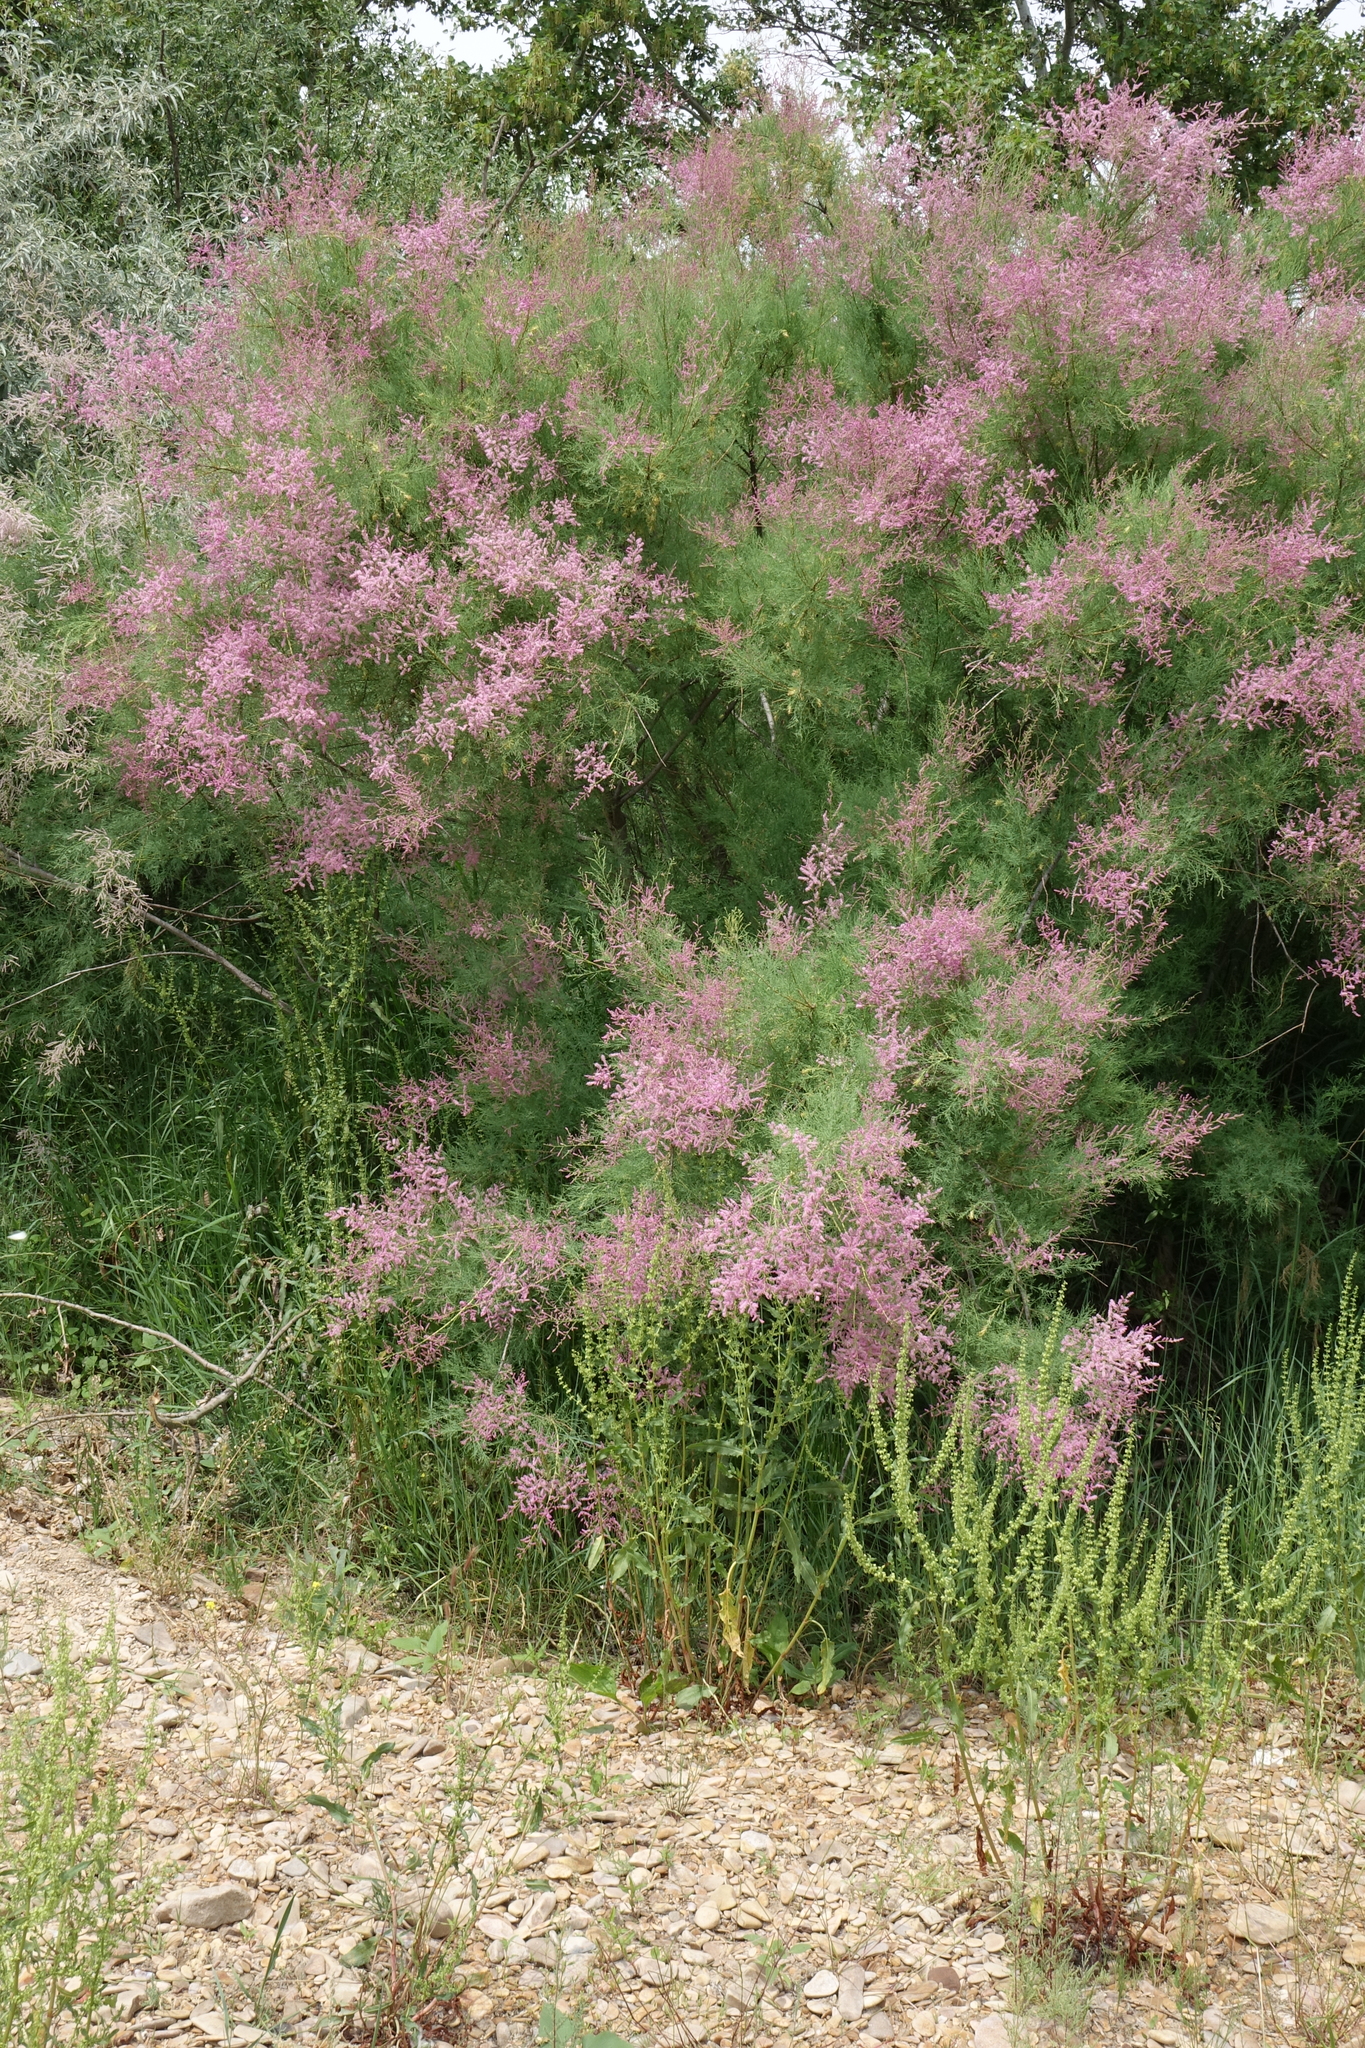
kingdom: Plantae
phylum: Tracheophyta
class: Magnoliopsida
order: Caryophyllales
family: Tamaricaceae
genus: Tamarix
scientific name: Tamarix ramosissima
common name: Pink tamarisk
